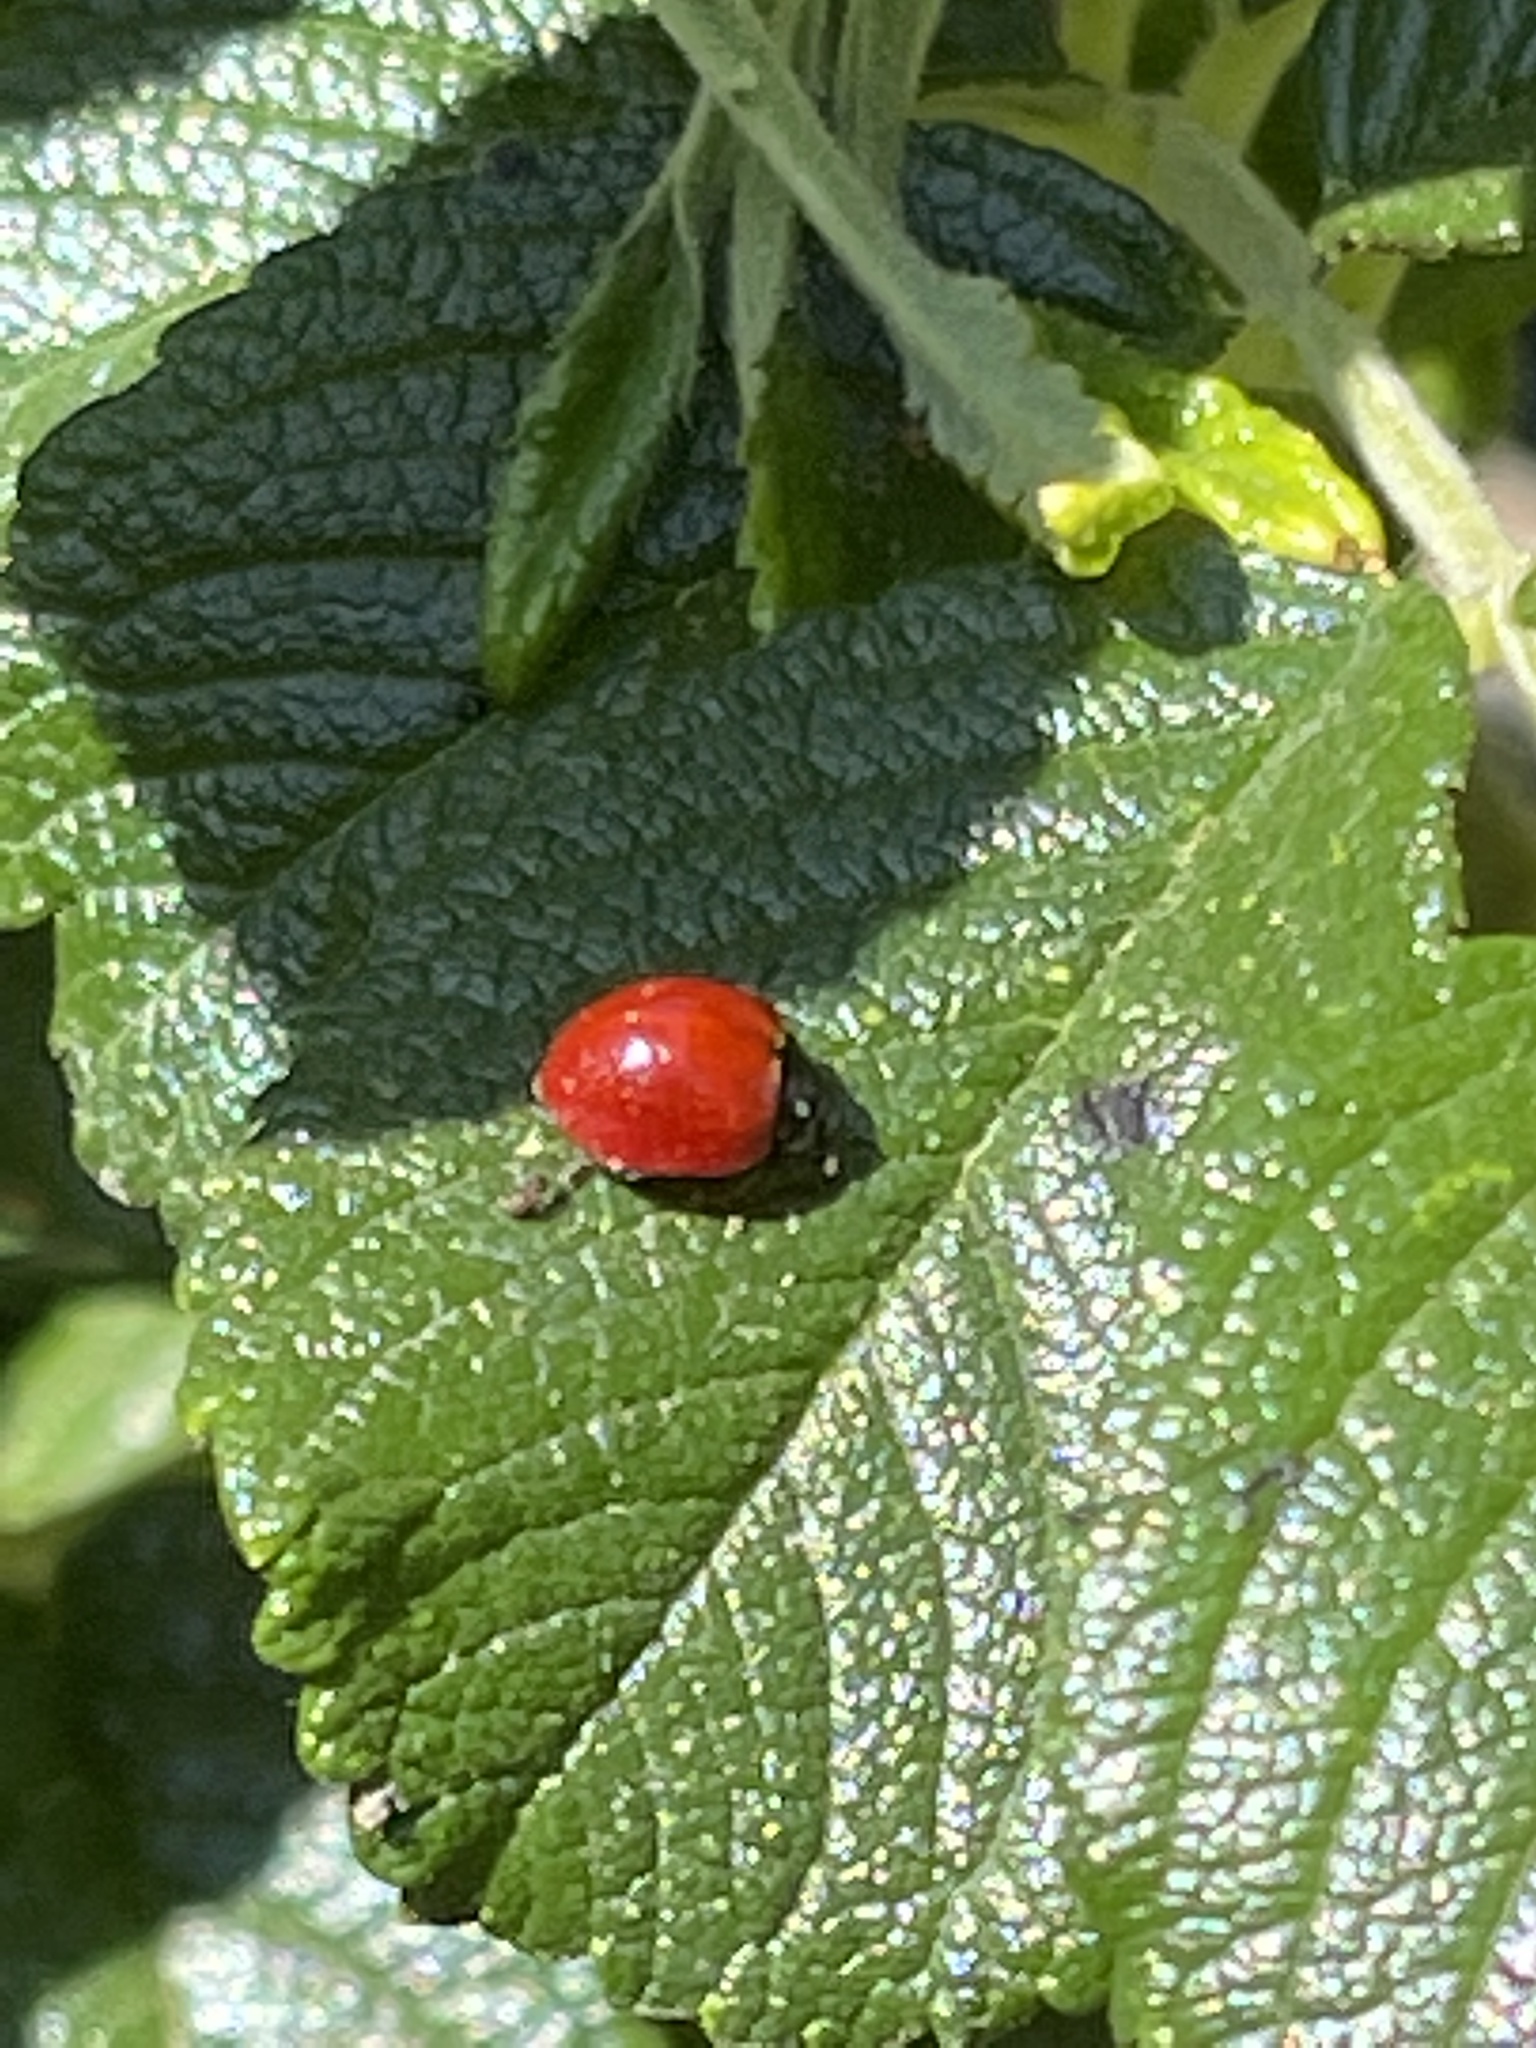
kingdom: Animalia
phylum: Arthropoda
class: Insecta
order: Coleoptera
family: Coccinellidae
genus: Cycloneda
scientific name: Cycloneda sanguinea
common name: Ladybird beetle
